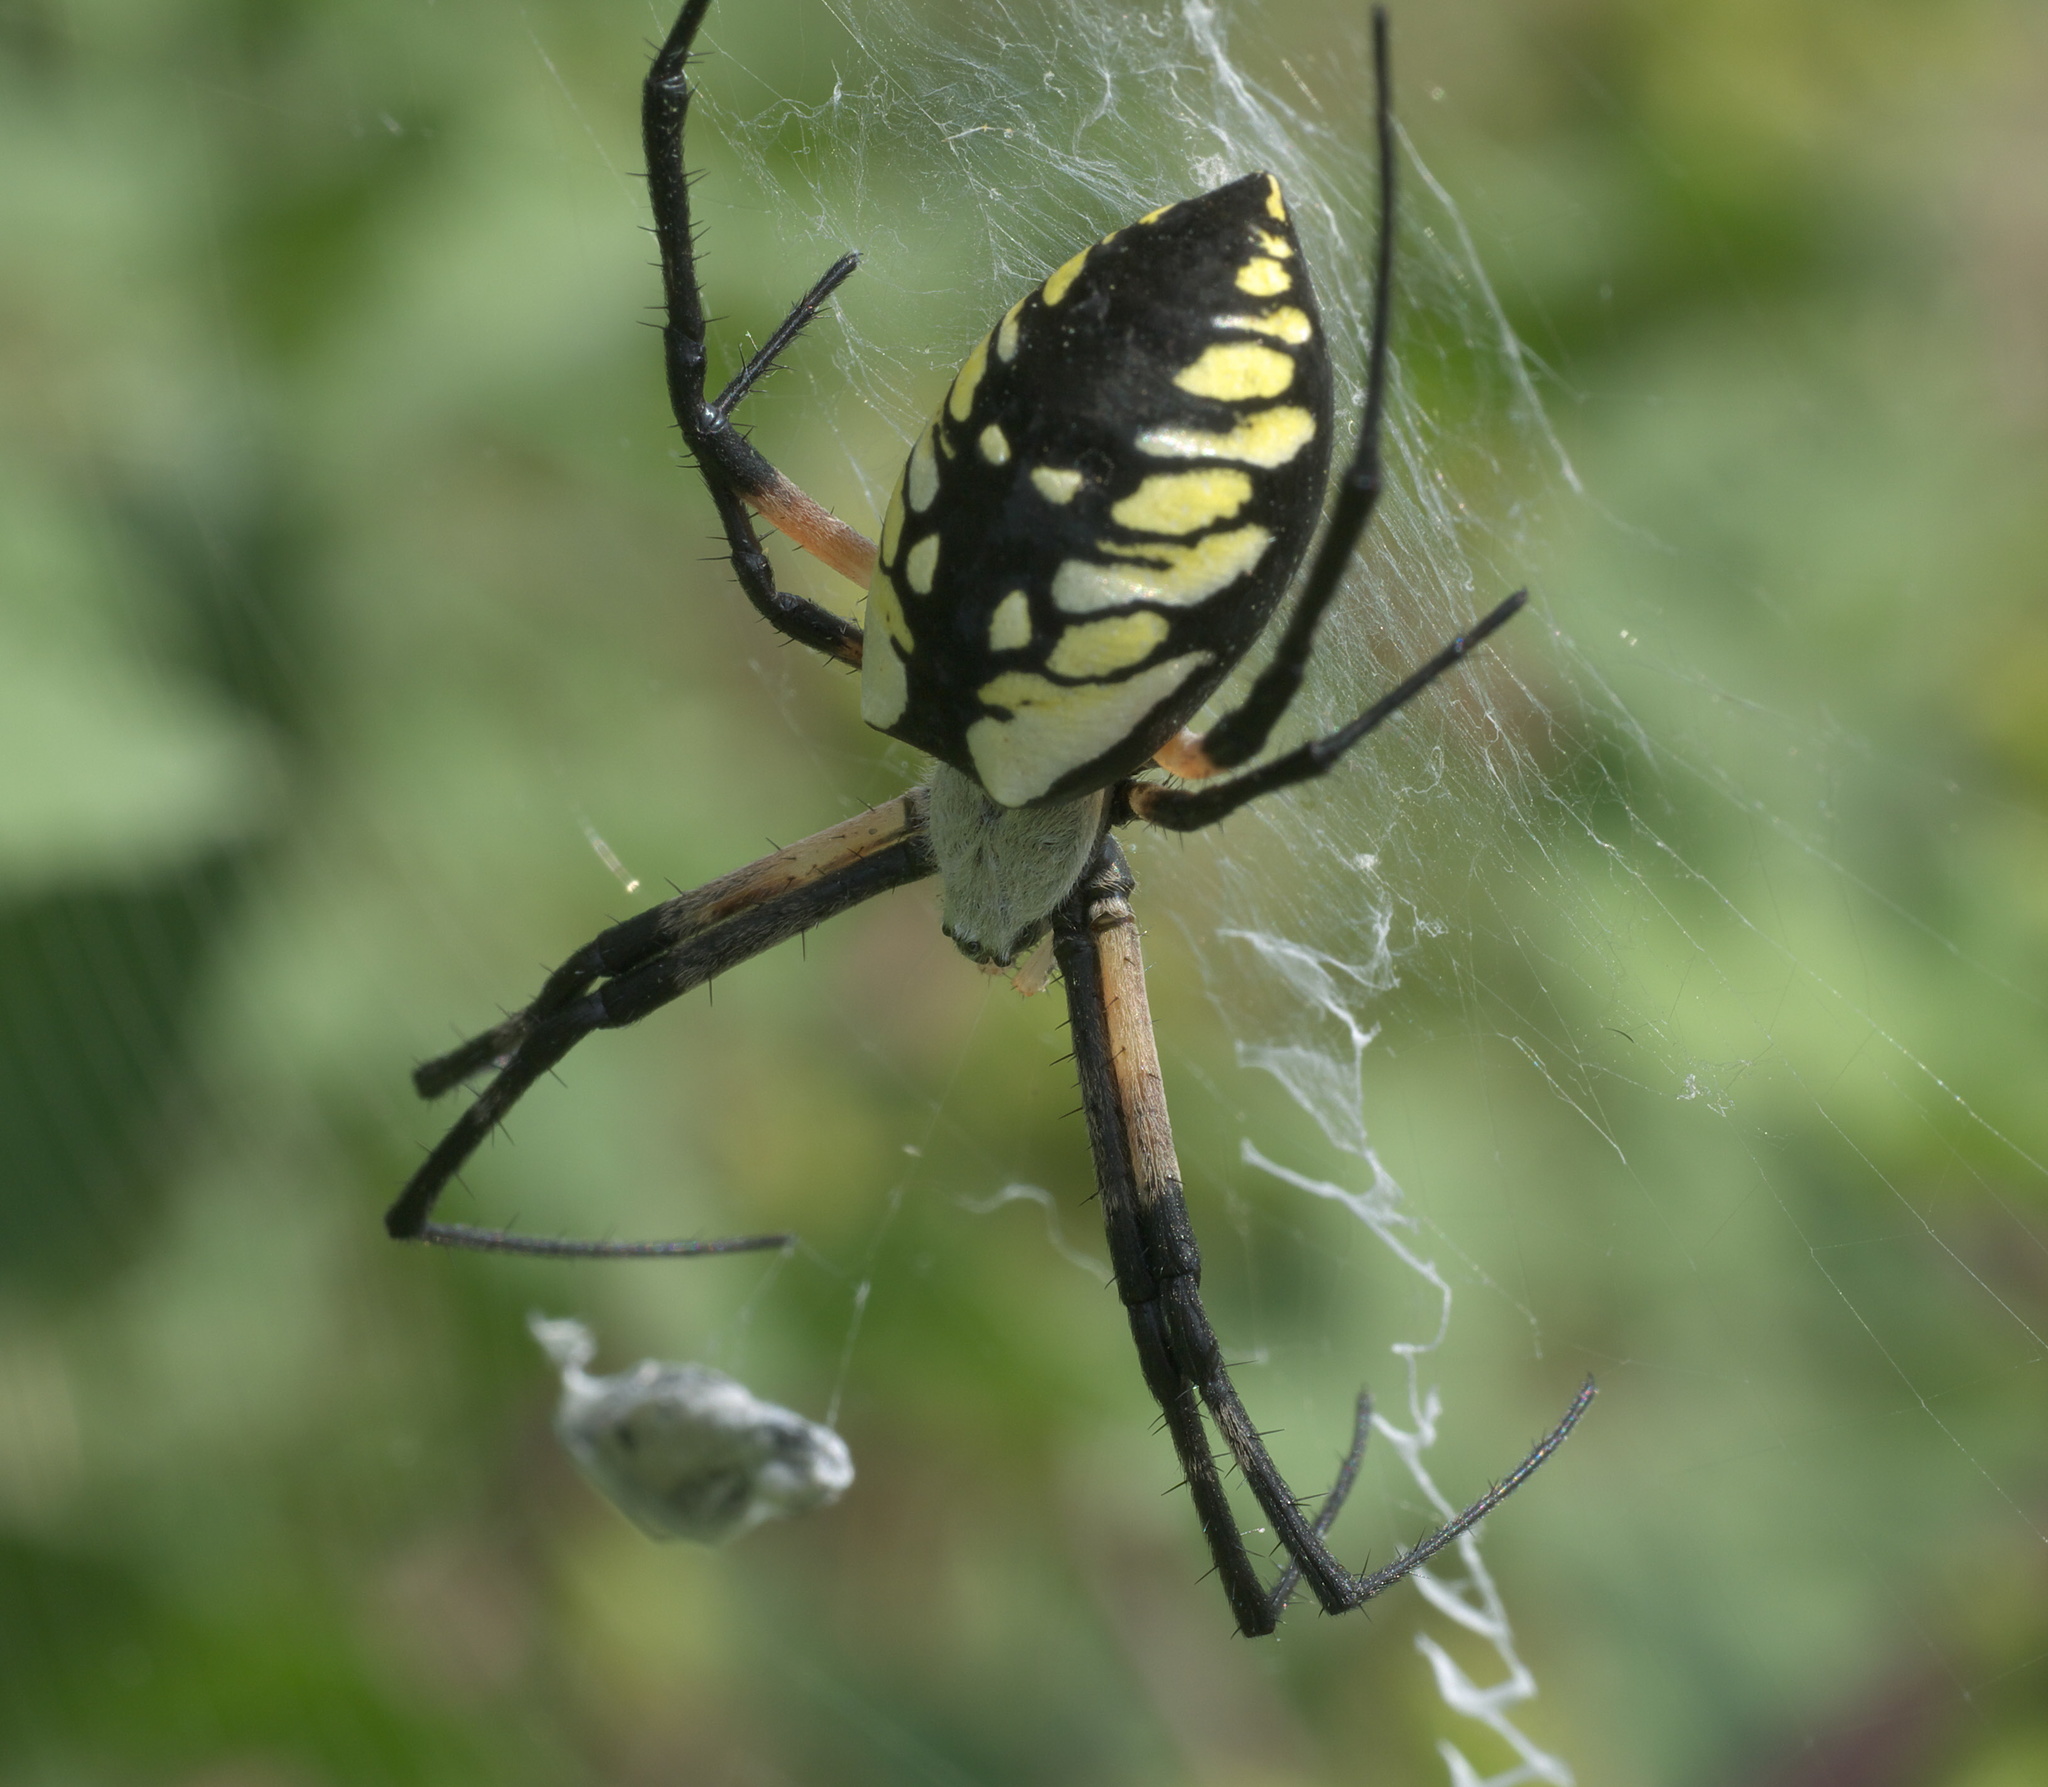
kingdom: Animalia
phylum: Arthropoda
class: Arachnida
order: Araneae
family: Araneidae
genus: Argiope
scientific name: Argiope aurantia
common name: Orb weavers
